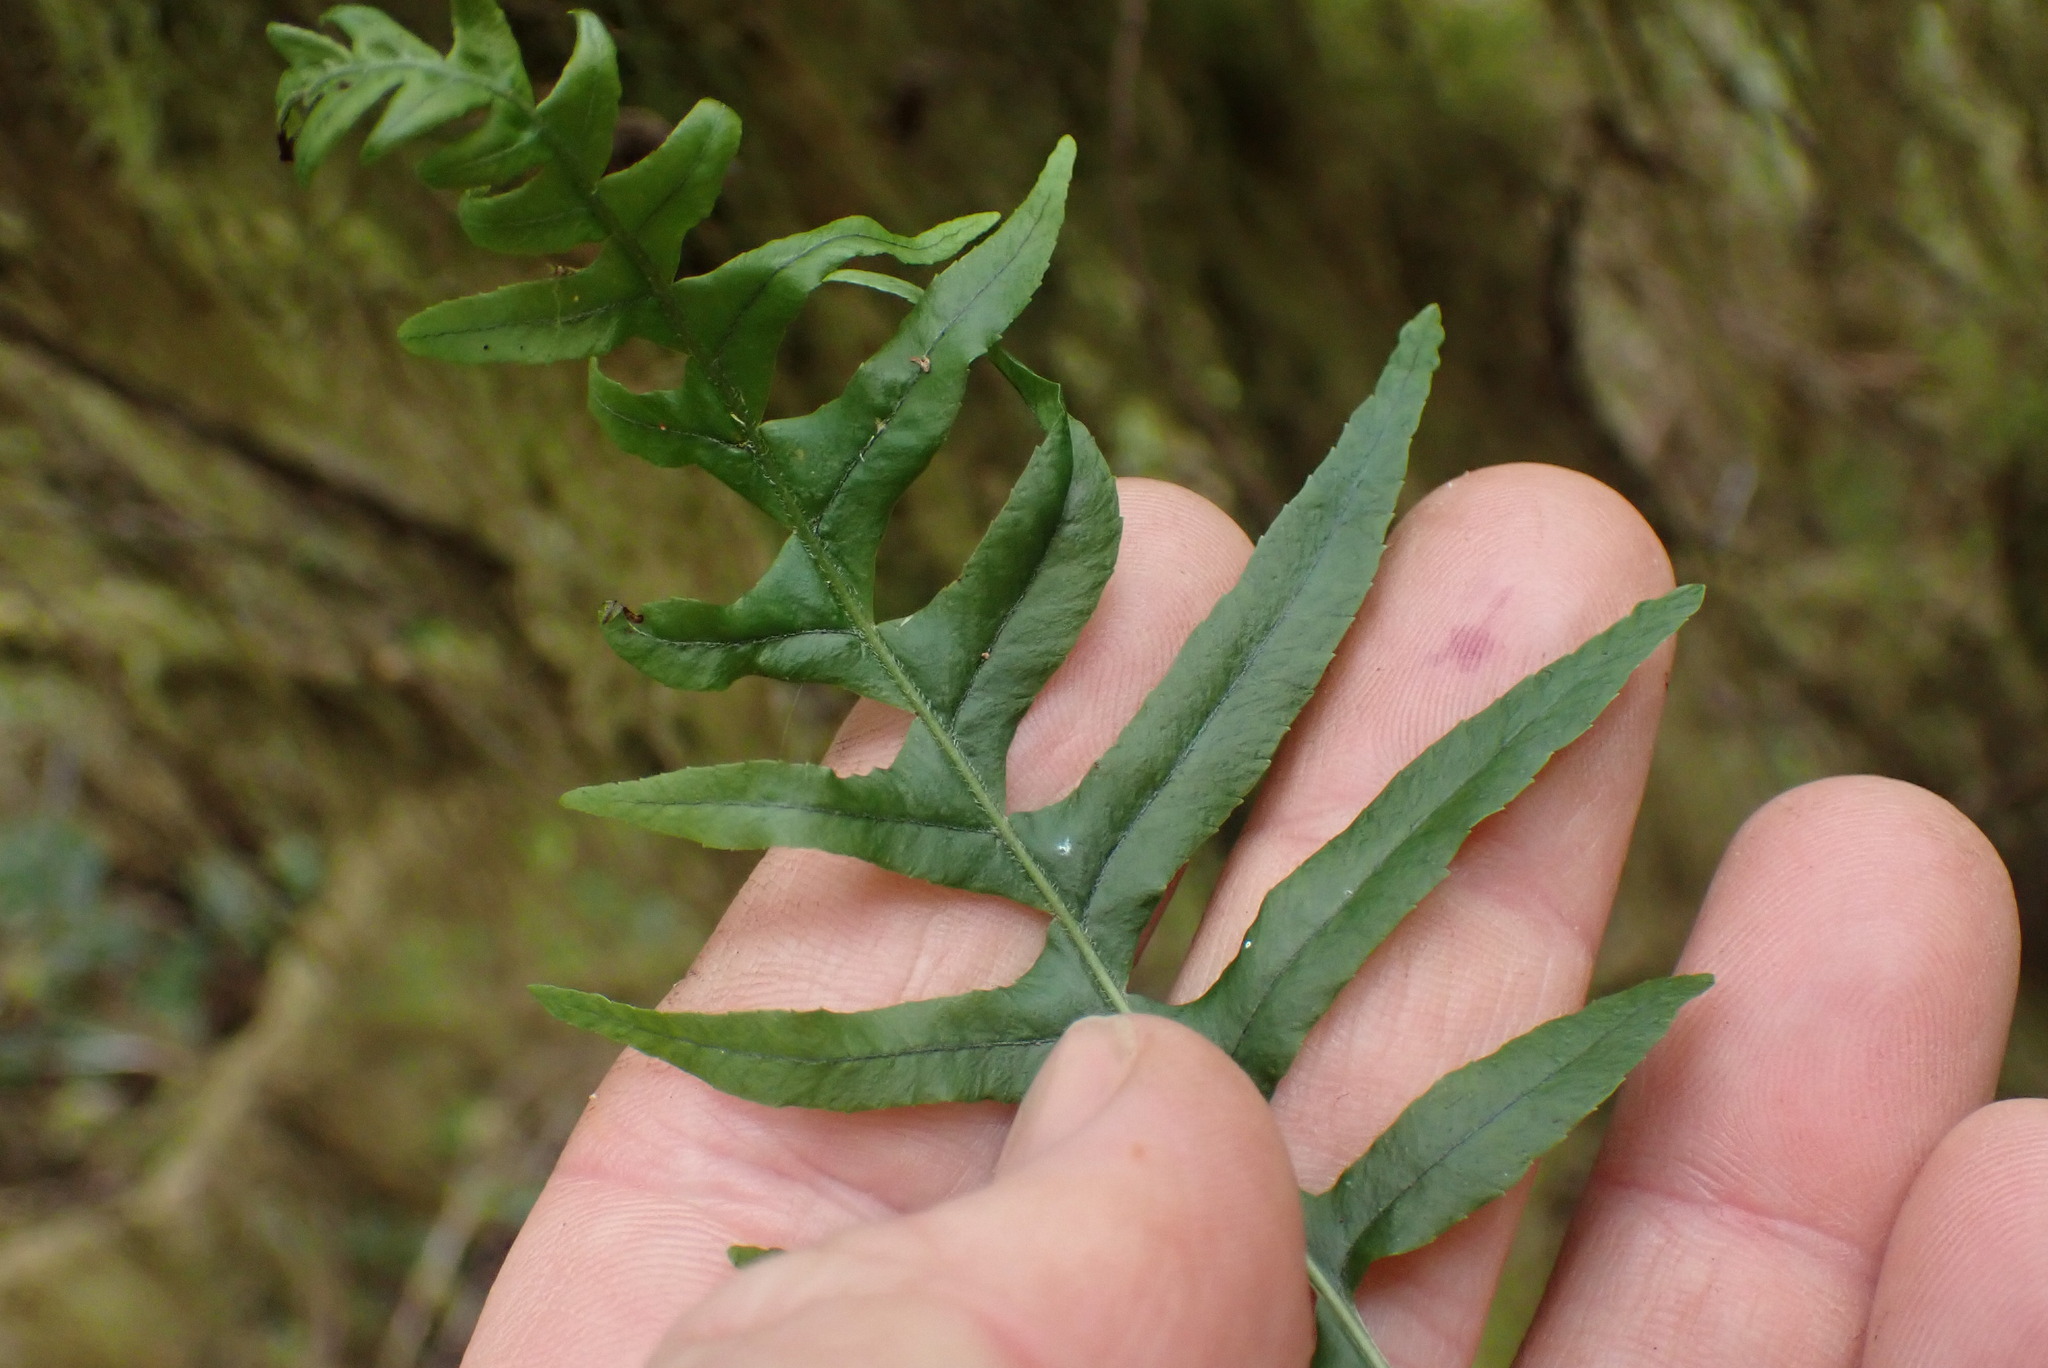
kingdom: Plantae
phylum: Tracheophyta
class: Polypodiopsida
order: Polypodiales
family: Polypodiaceae
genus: Polypodium
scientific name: Polypodium glycyrrhiza
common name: Licorice fern
